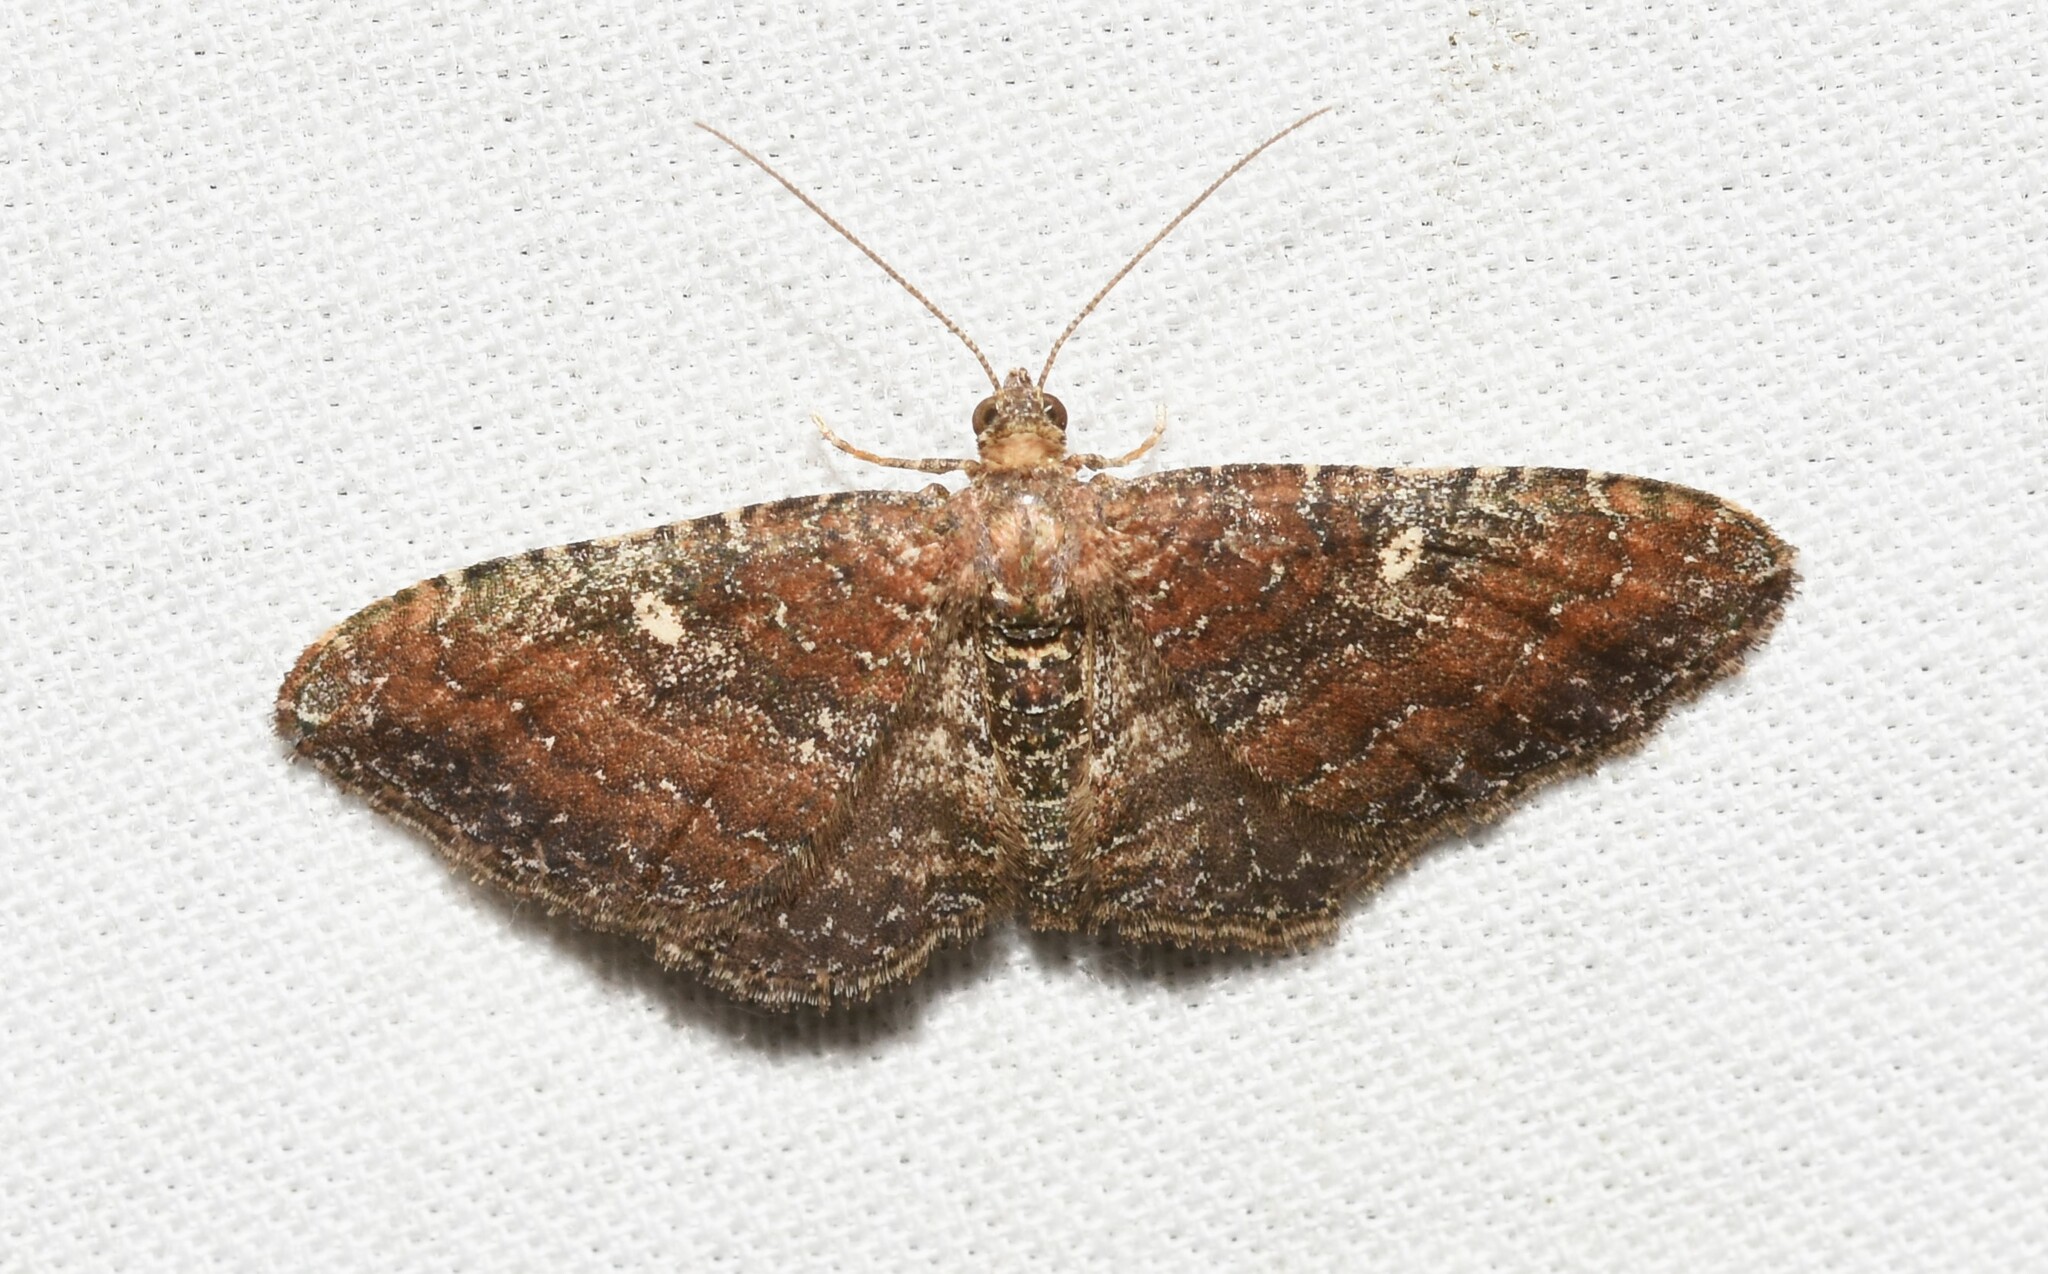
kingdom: Animalia
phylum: Arthropoda
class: Insecta
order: Lepidoptera
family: Geometridae
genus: Orthonama
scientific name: Orthonama obstipata
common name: The gem
